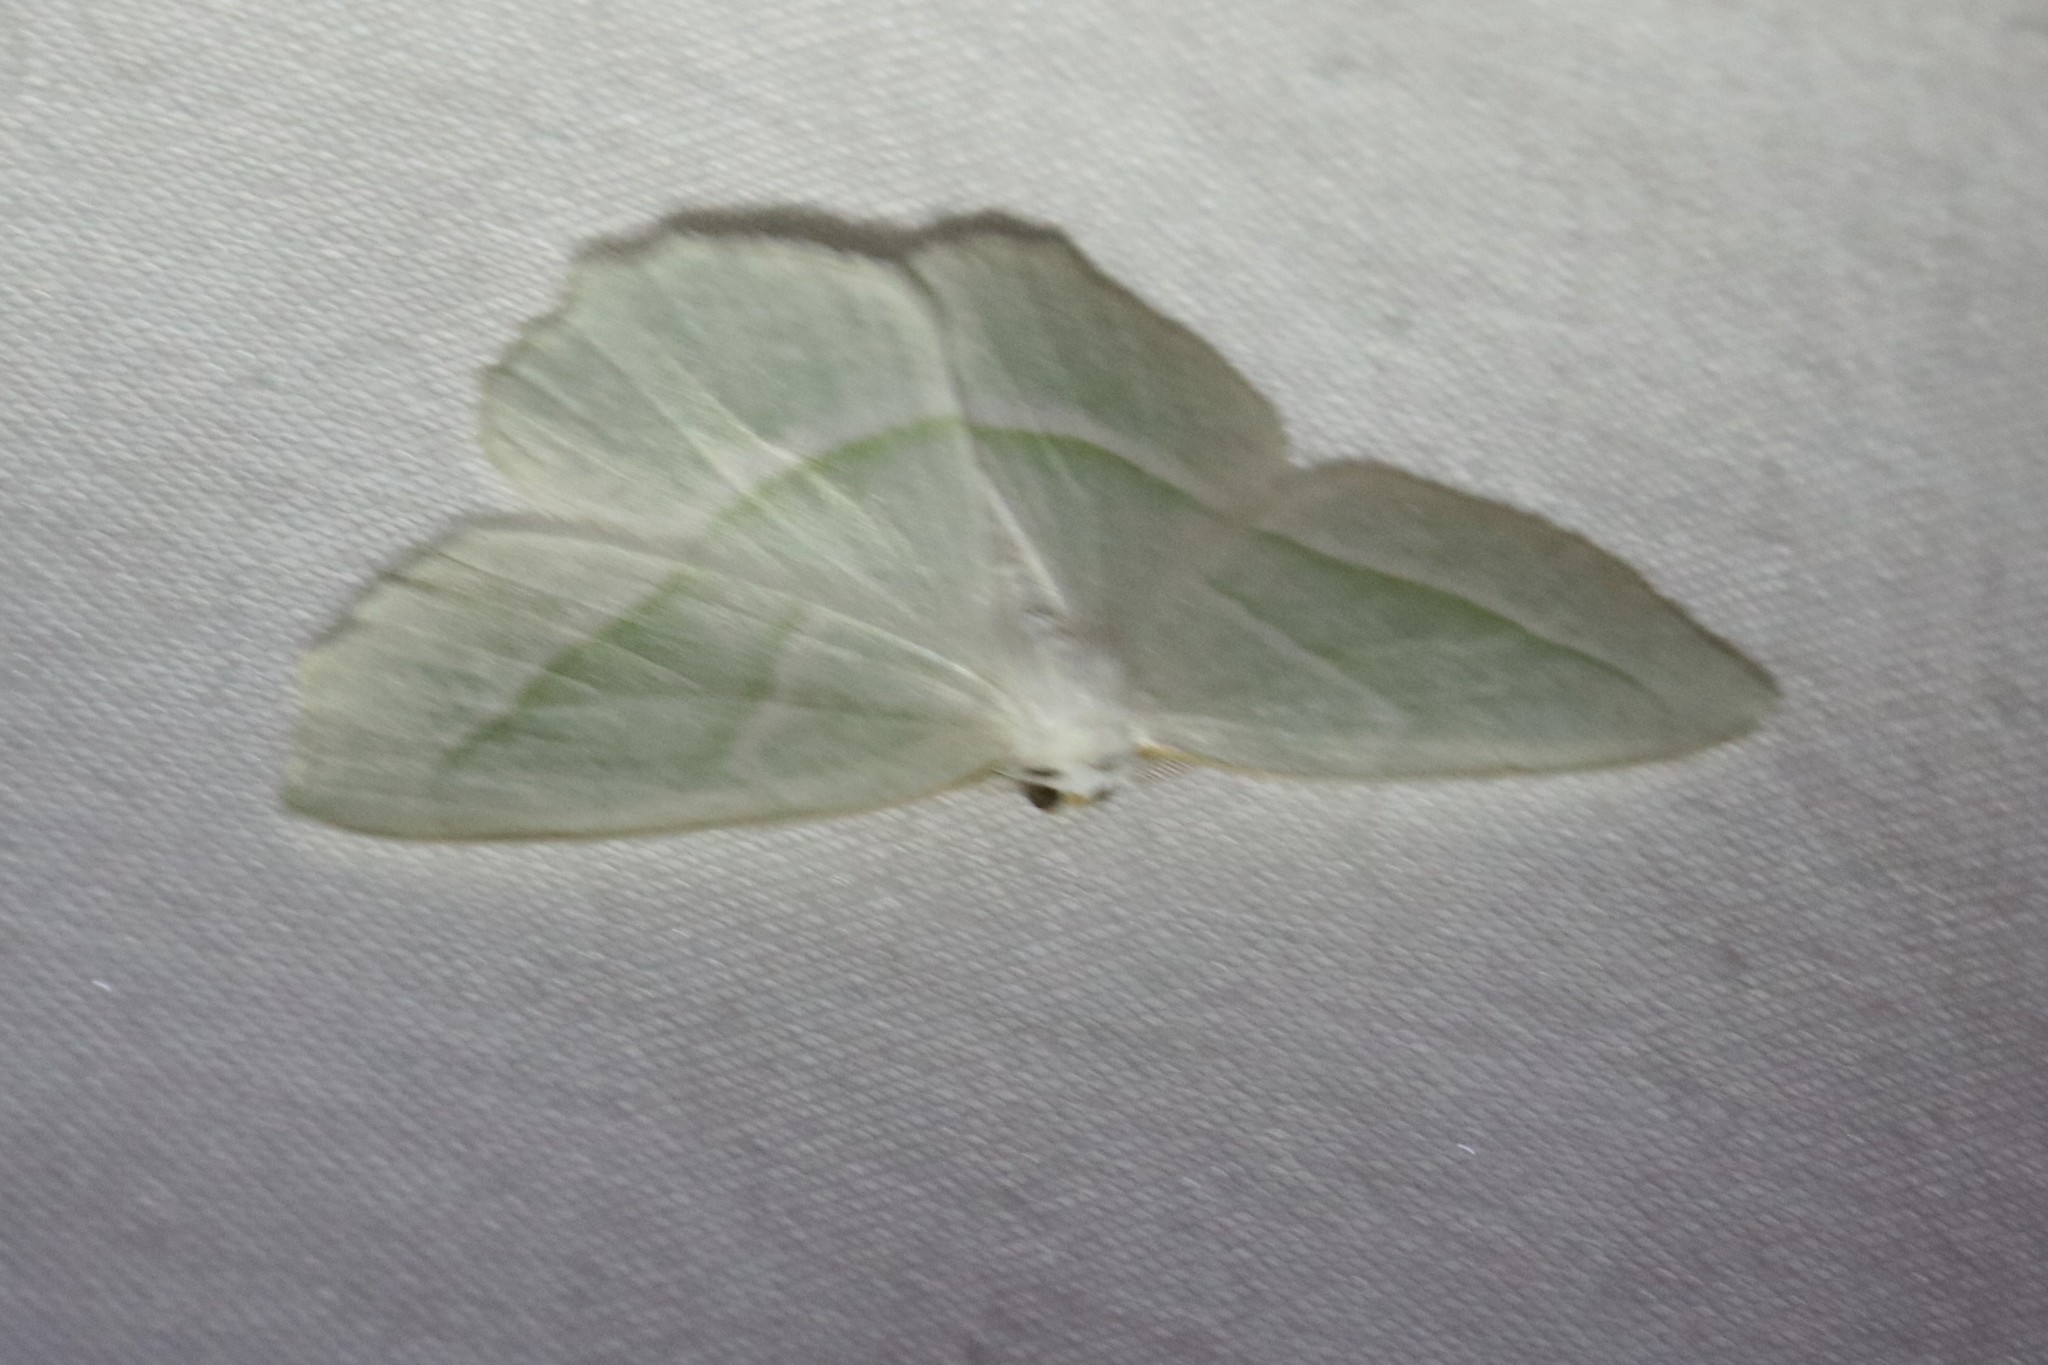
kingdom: Animalia
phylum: Arthropoda
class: Insecta
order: Lepidoptera
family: Geometridae
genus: Campaea
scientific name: Campaea perlata
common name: Fringed looper
